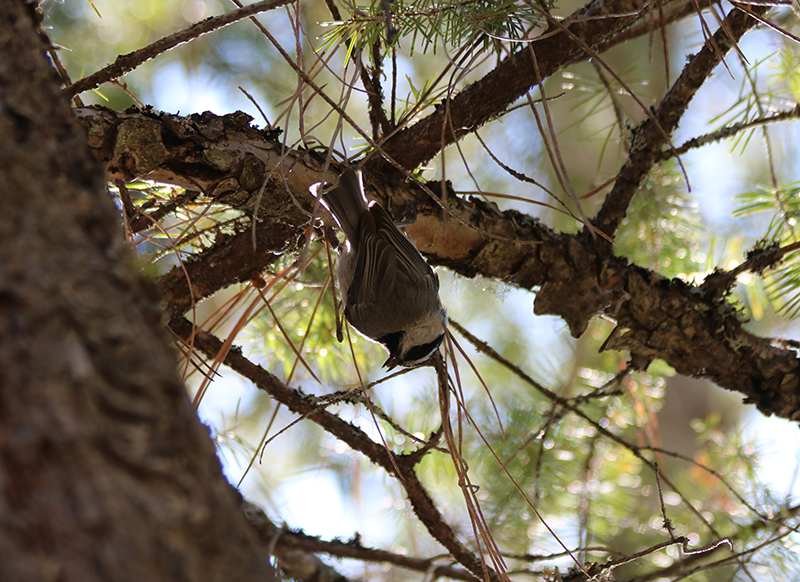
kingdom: Animalia
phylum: Chordata
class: Aves
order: Passeriformes
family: Paridae
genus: Poecile
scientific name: Poecile gambeli
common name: Mountain chickadee
